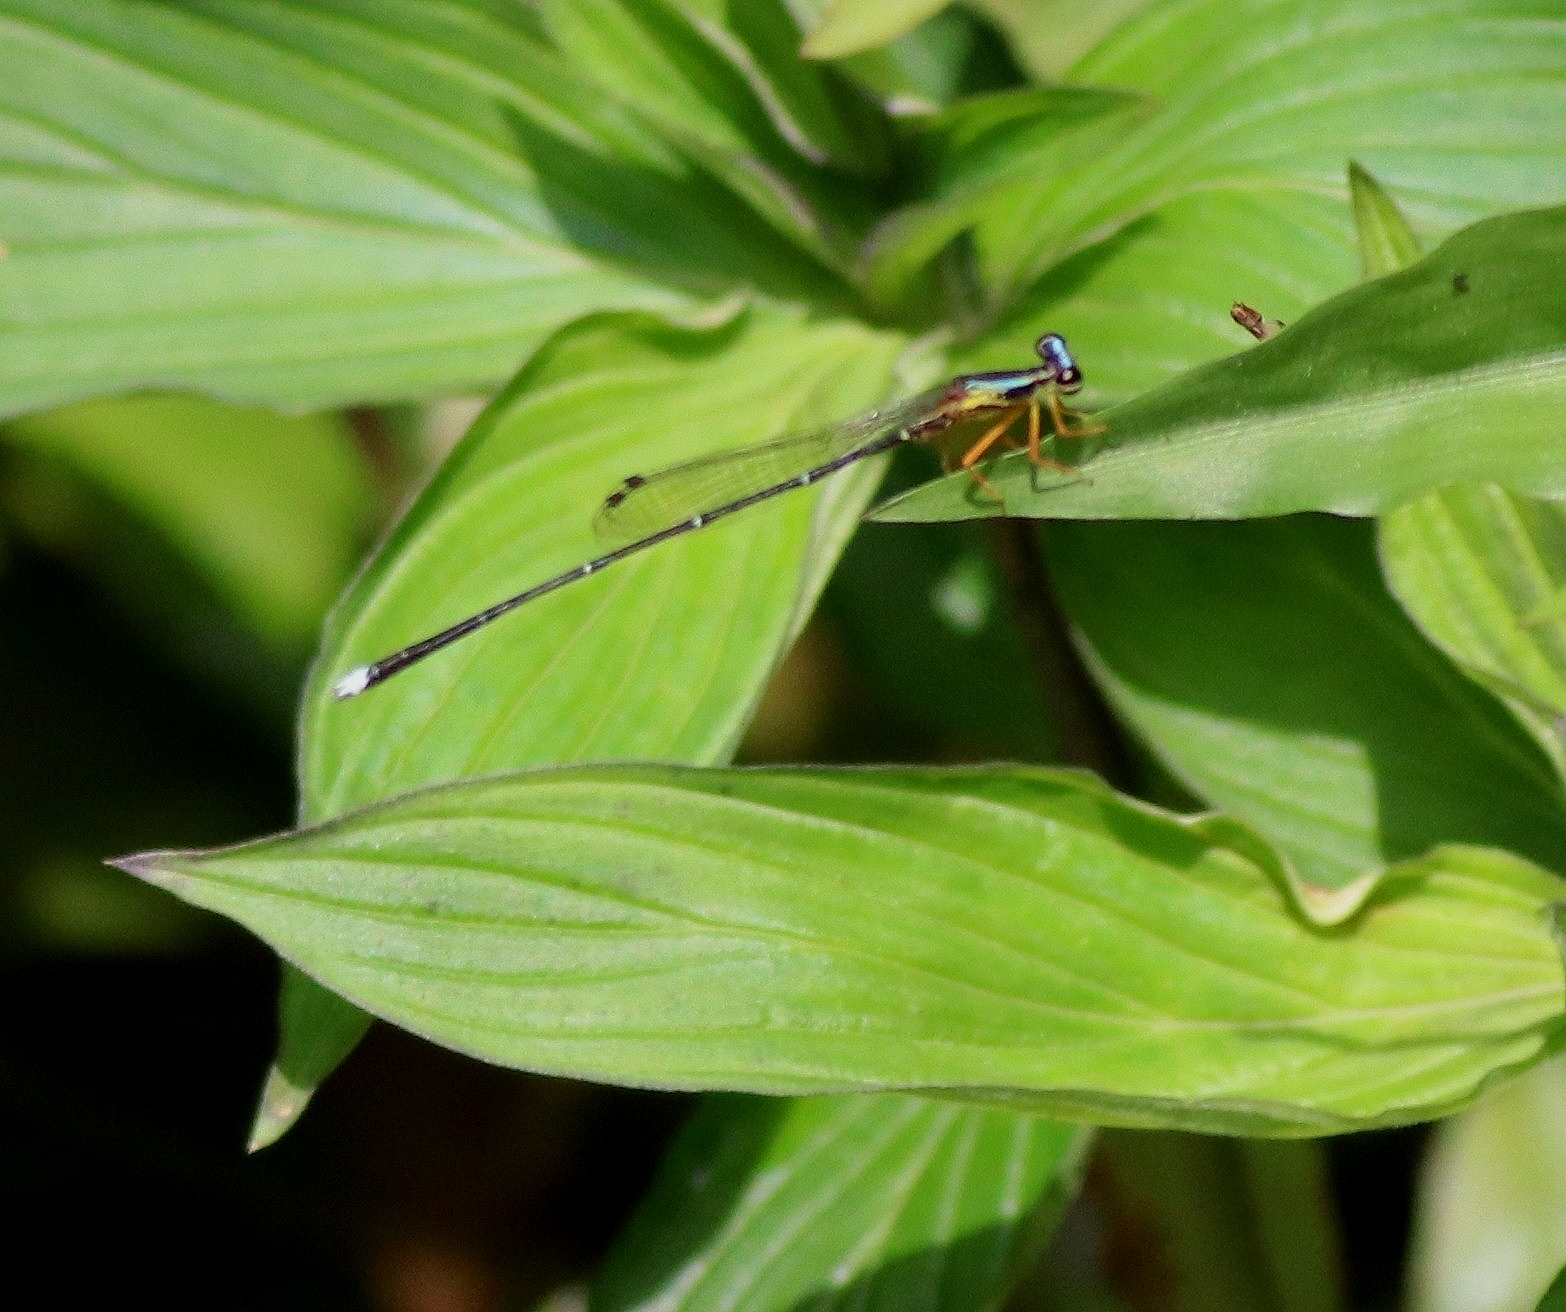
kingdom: Animalia
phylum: Arthropoda
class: Insecta
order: Odonata
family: Platycnemididae
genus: Copera
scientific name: Copera vittata
